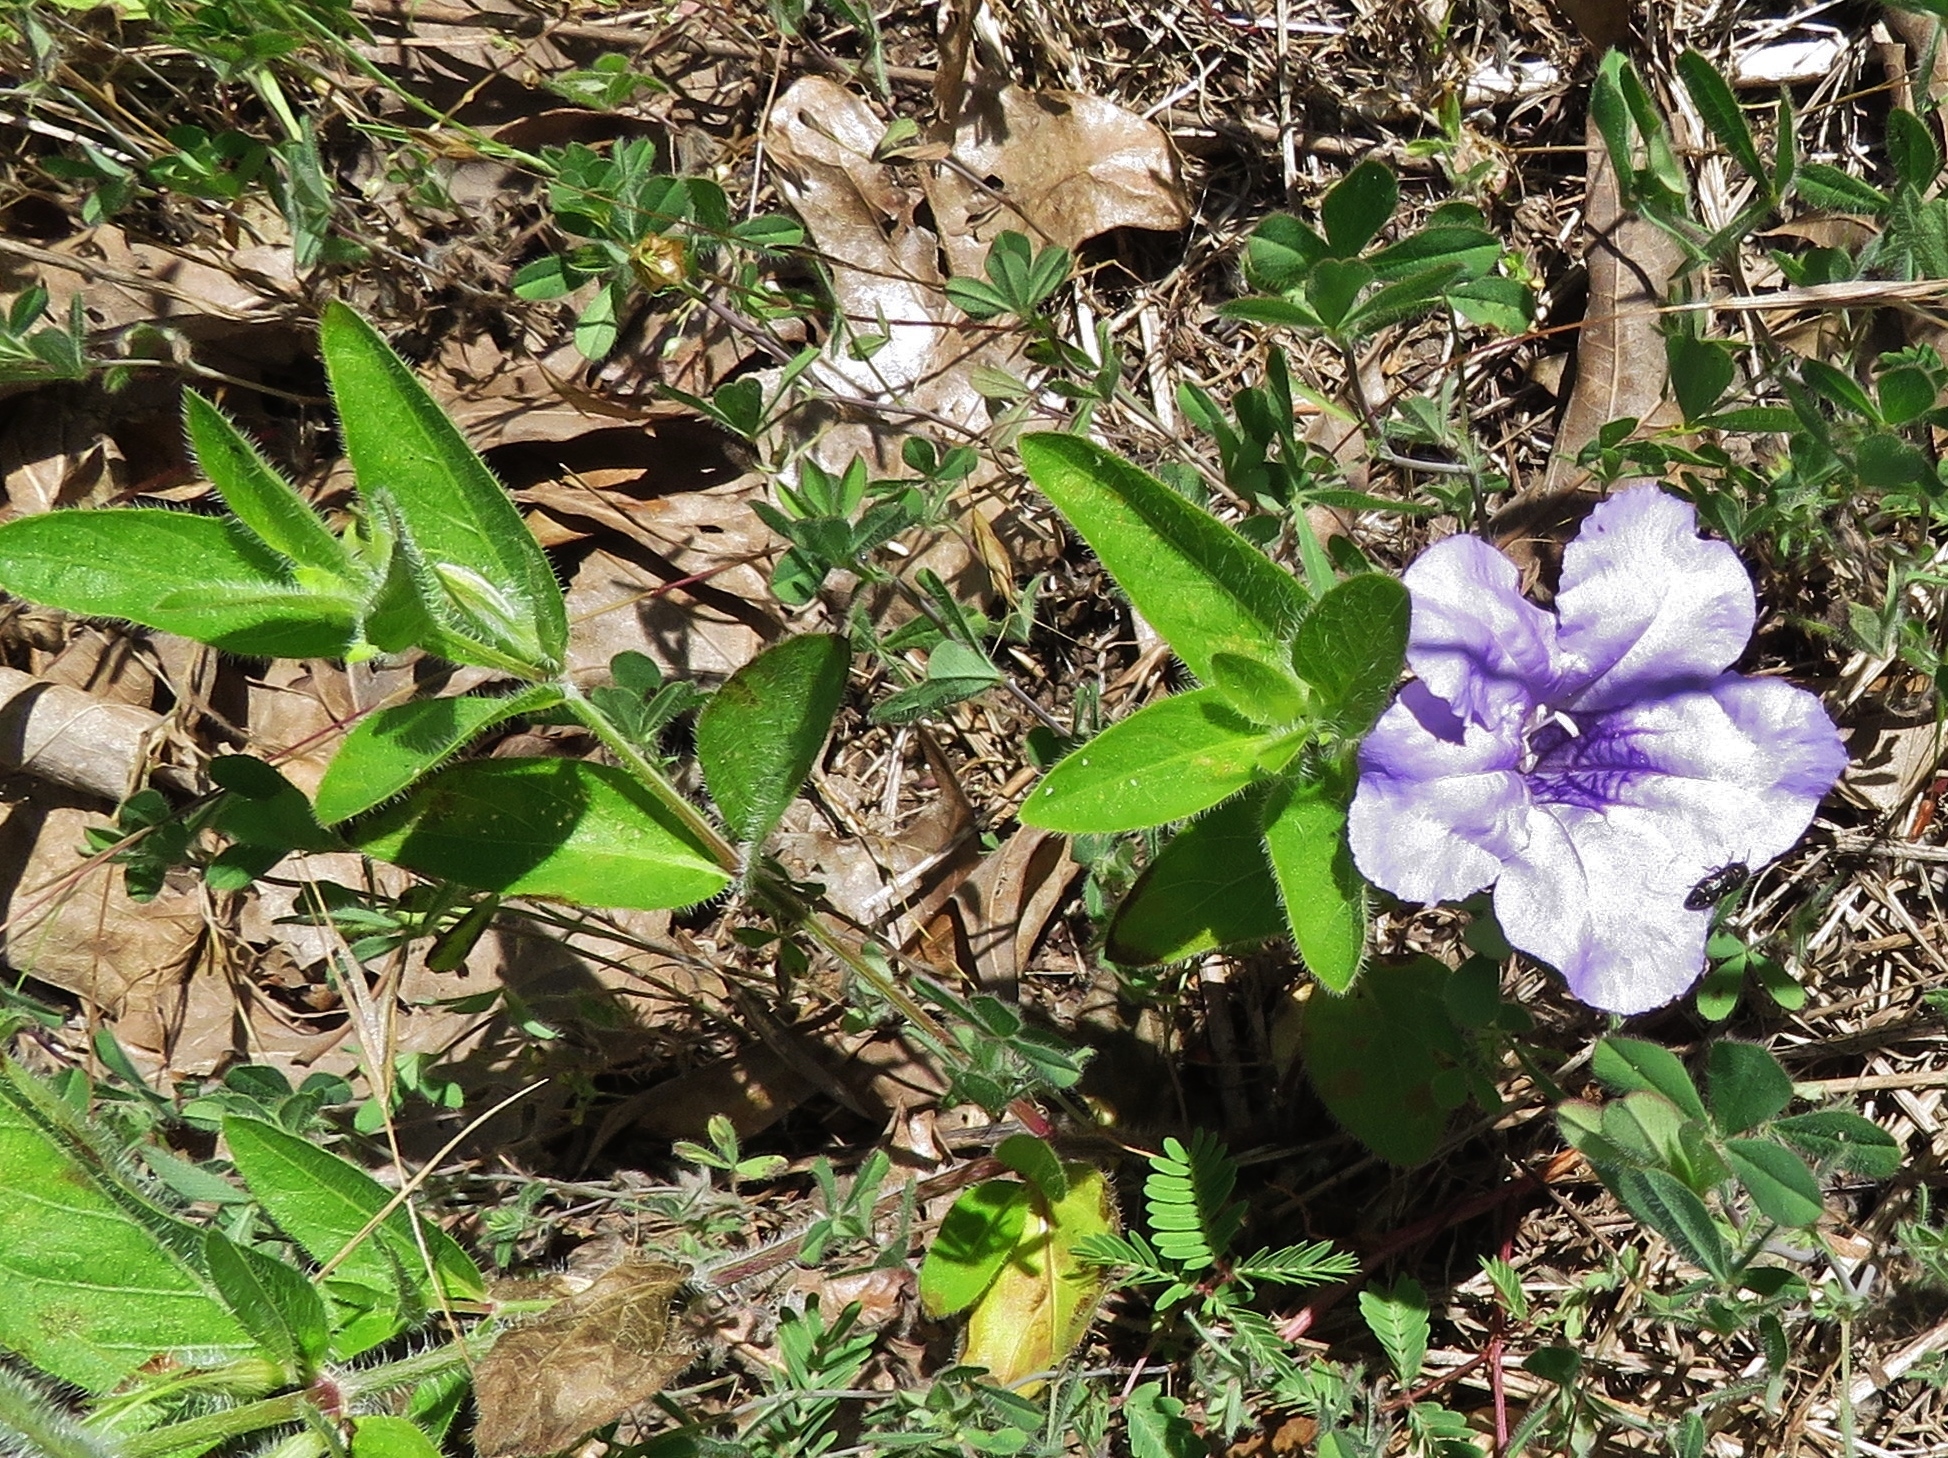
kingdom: Plantae
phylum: Tracheophyta
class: Magnoliopsida
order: Lamiales
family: Acanthaceae
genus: Ruellia
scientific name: Ruellia humilis
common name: Fringe-leaf ruellia
